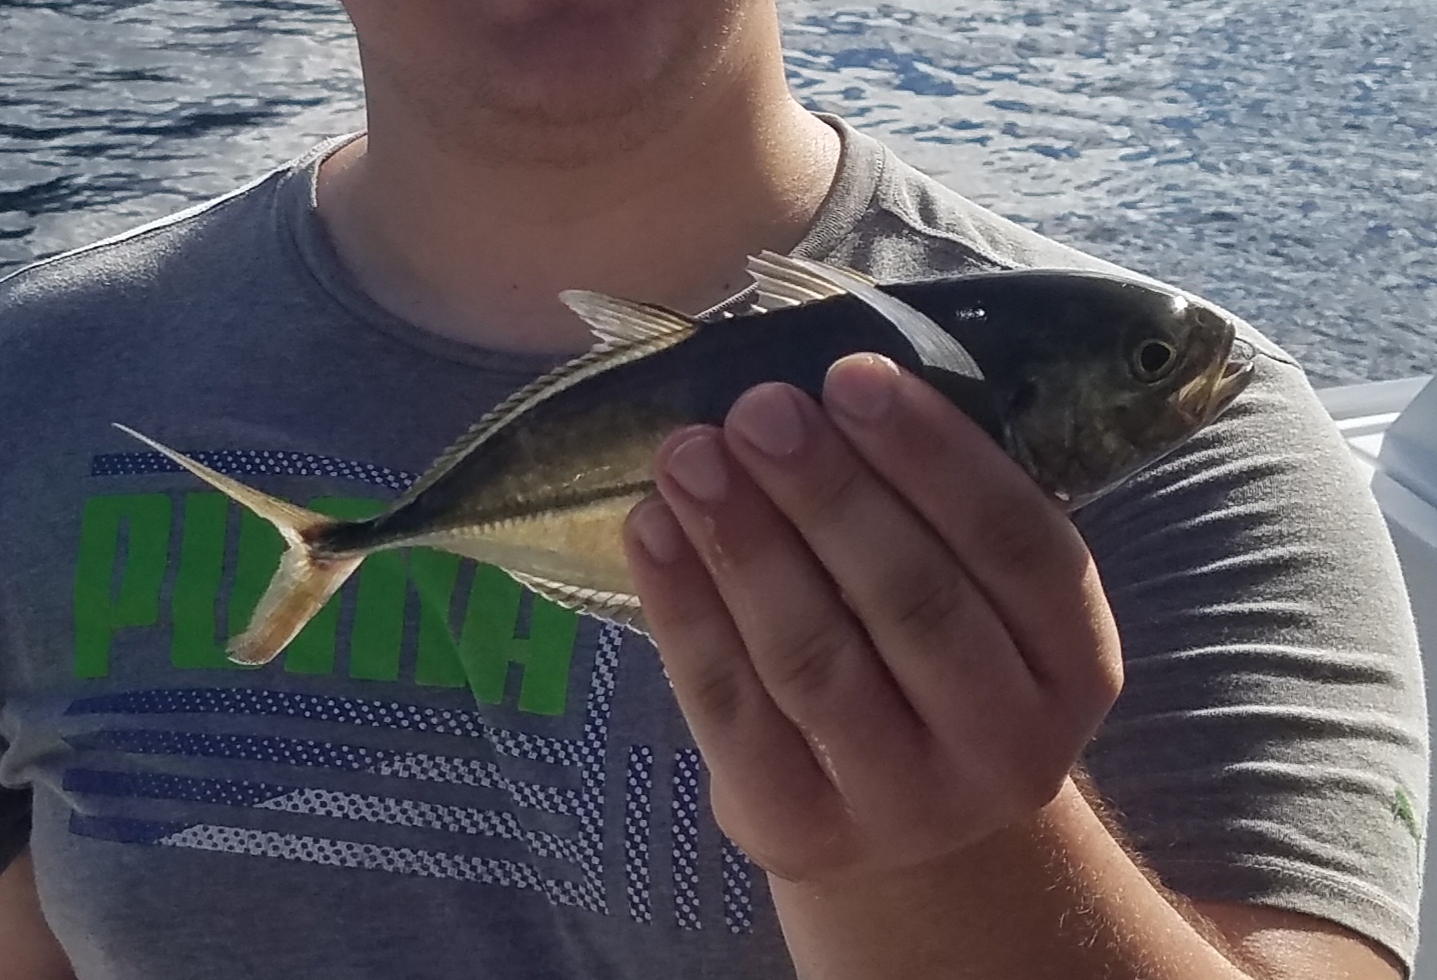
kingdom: Animalia
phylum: Chordata
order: Perciformes
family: Carangidae
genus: Caranx
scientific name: Caranx crysos
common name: Blue runner
